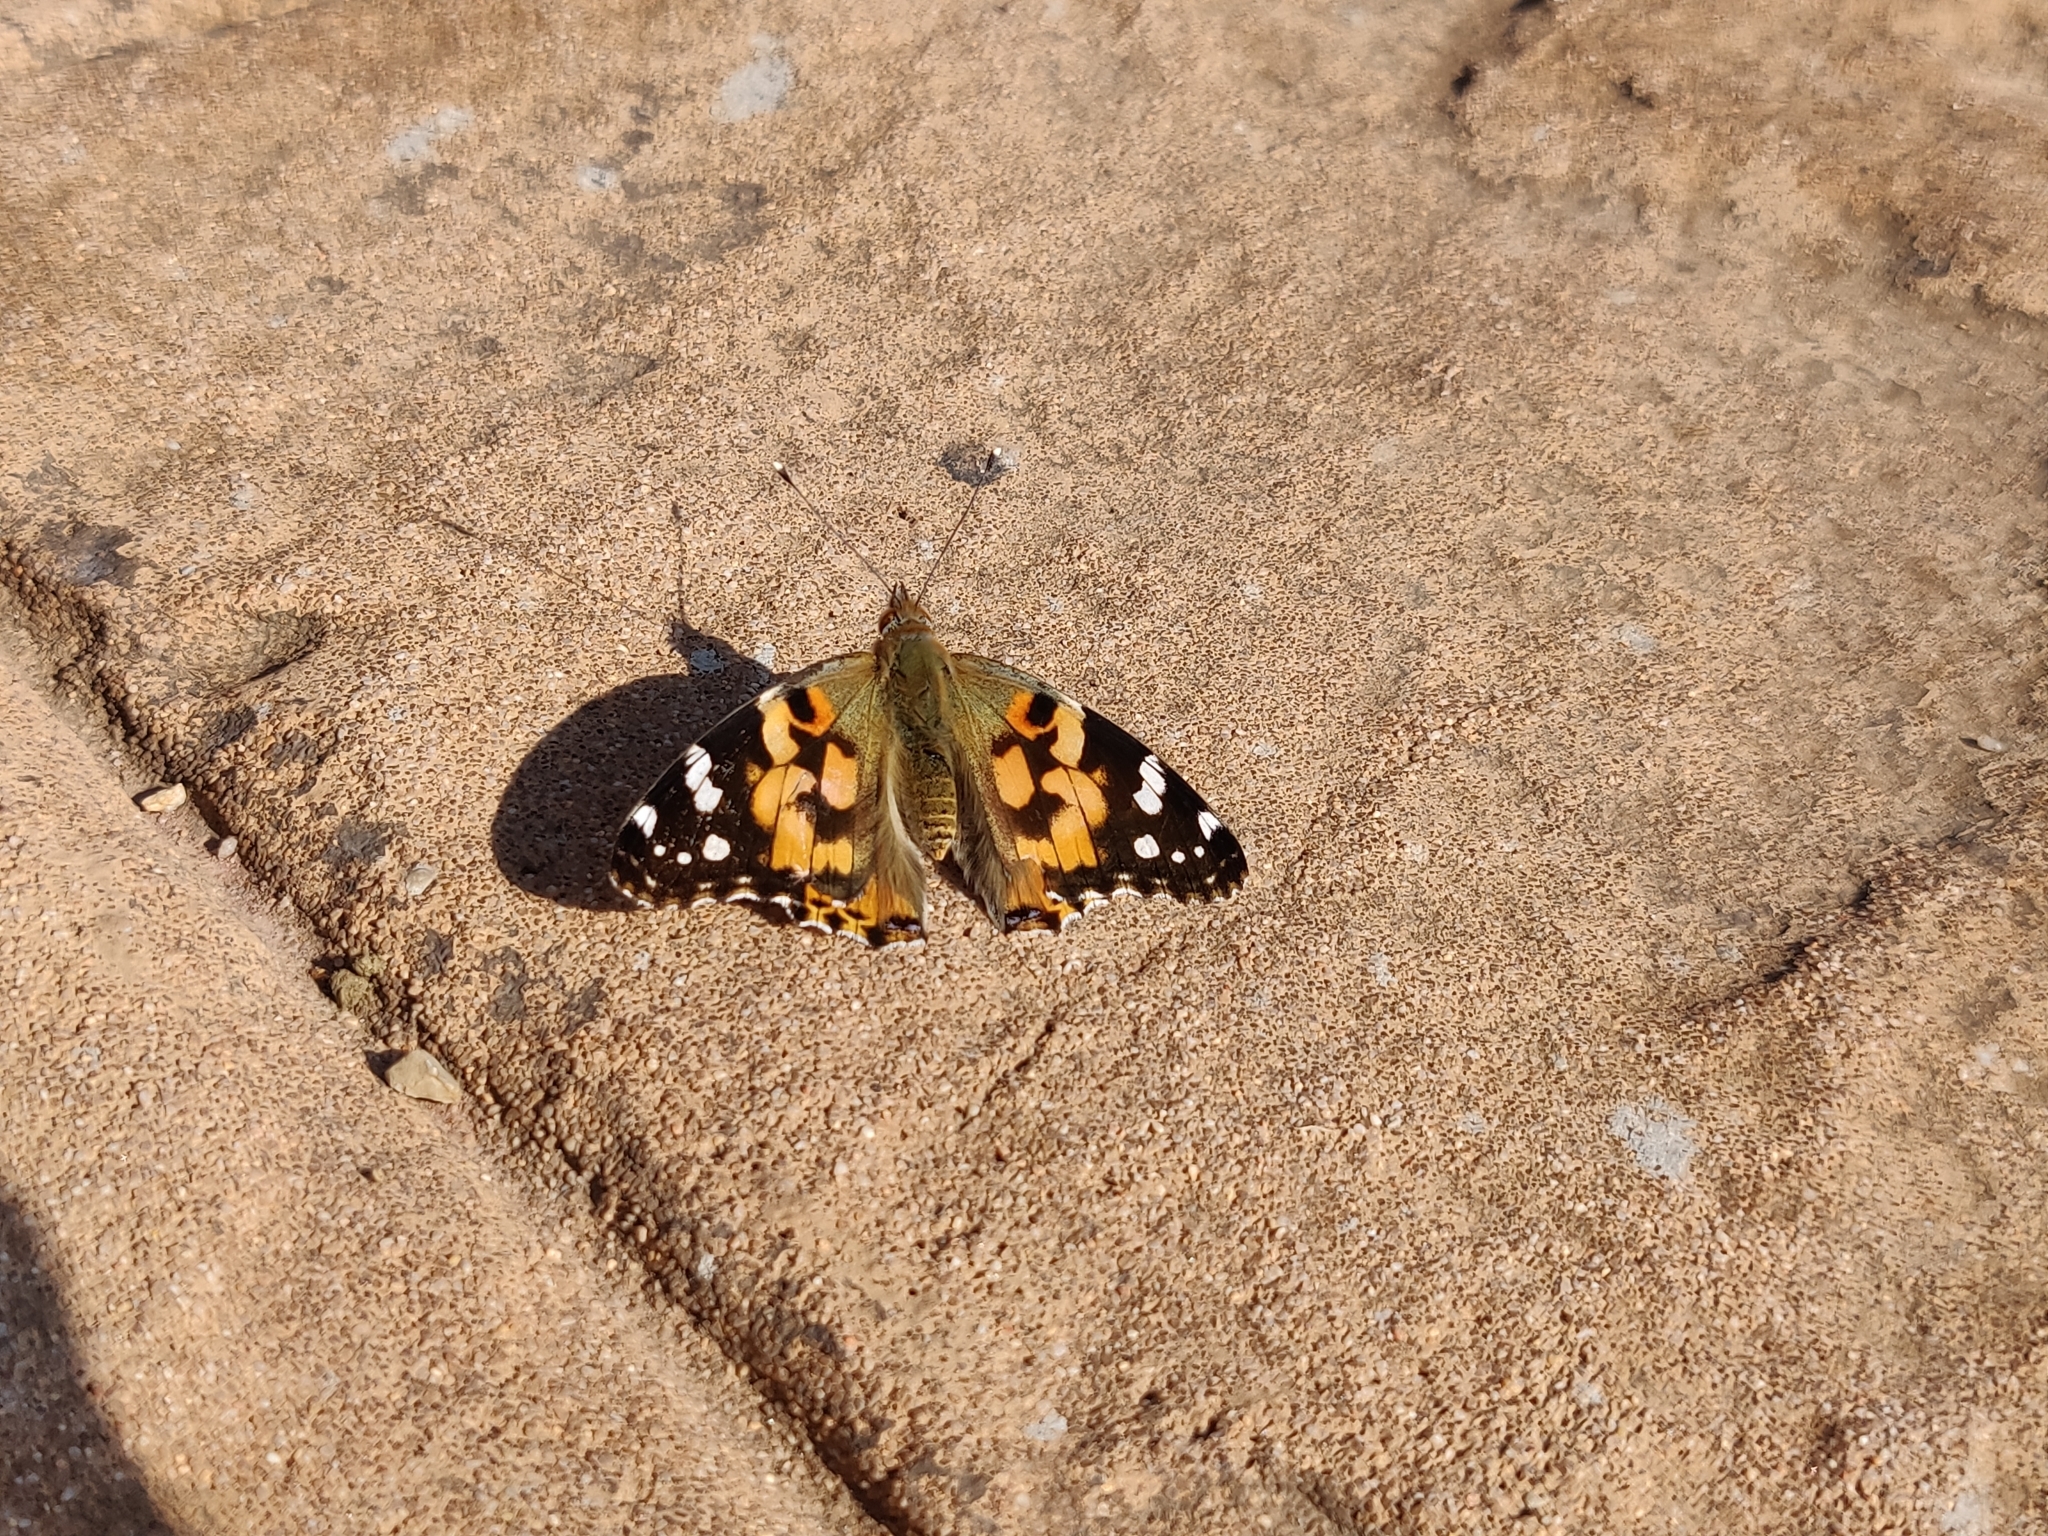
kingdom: Animalia
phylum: Arthropoda
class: Insecta
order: Lepidoptera
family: Nymphalidae
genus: Vanessa
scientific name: Vanessa cardui
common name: Painted lady
